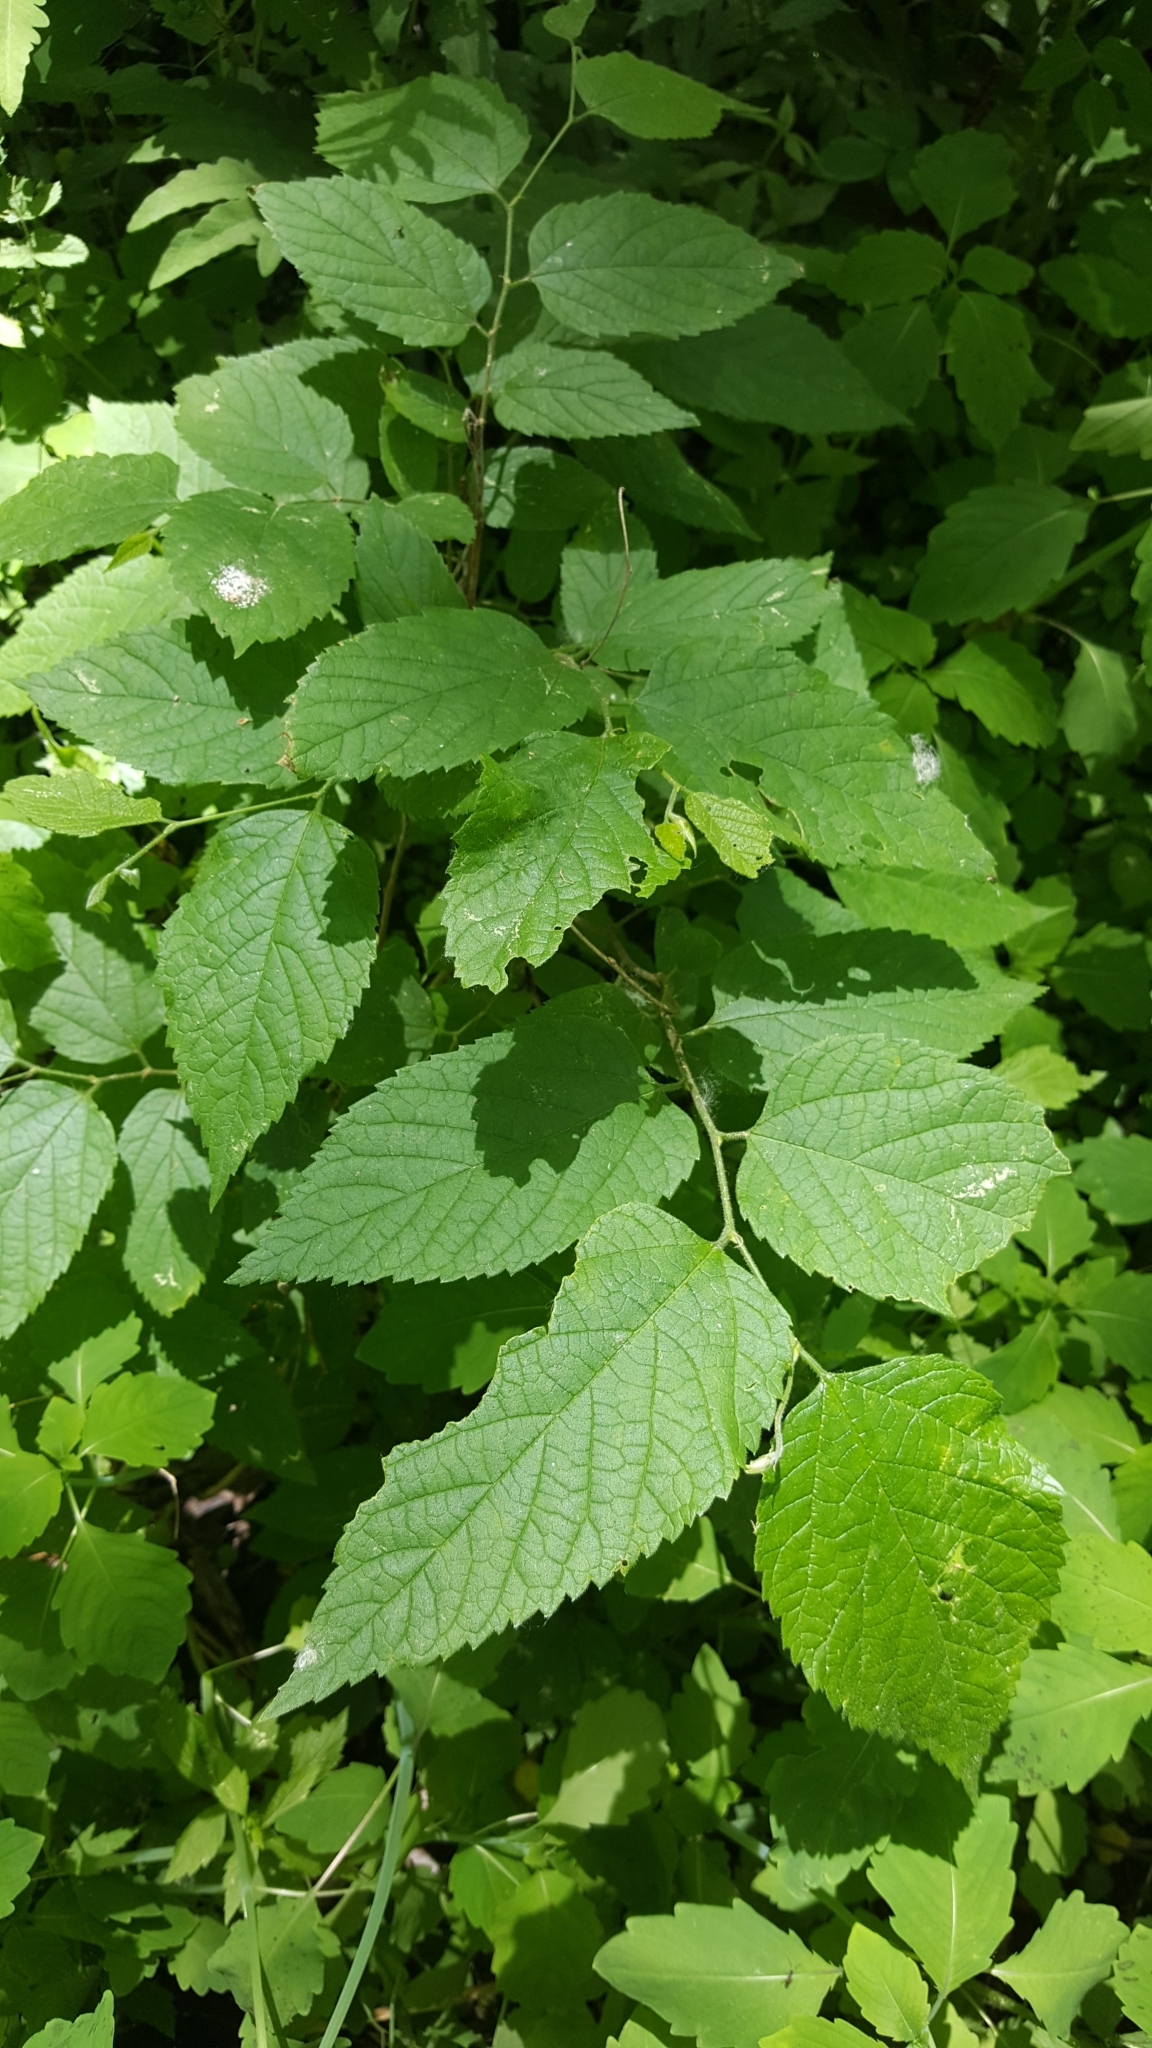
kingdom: Plantae
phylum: Tracheophyta
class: Magnoliopsida
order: Rosales
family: Cannabaceae
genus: Celtis
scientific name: Celtis occidentalis
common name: Common hackberry
